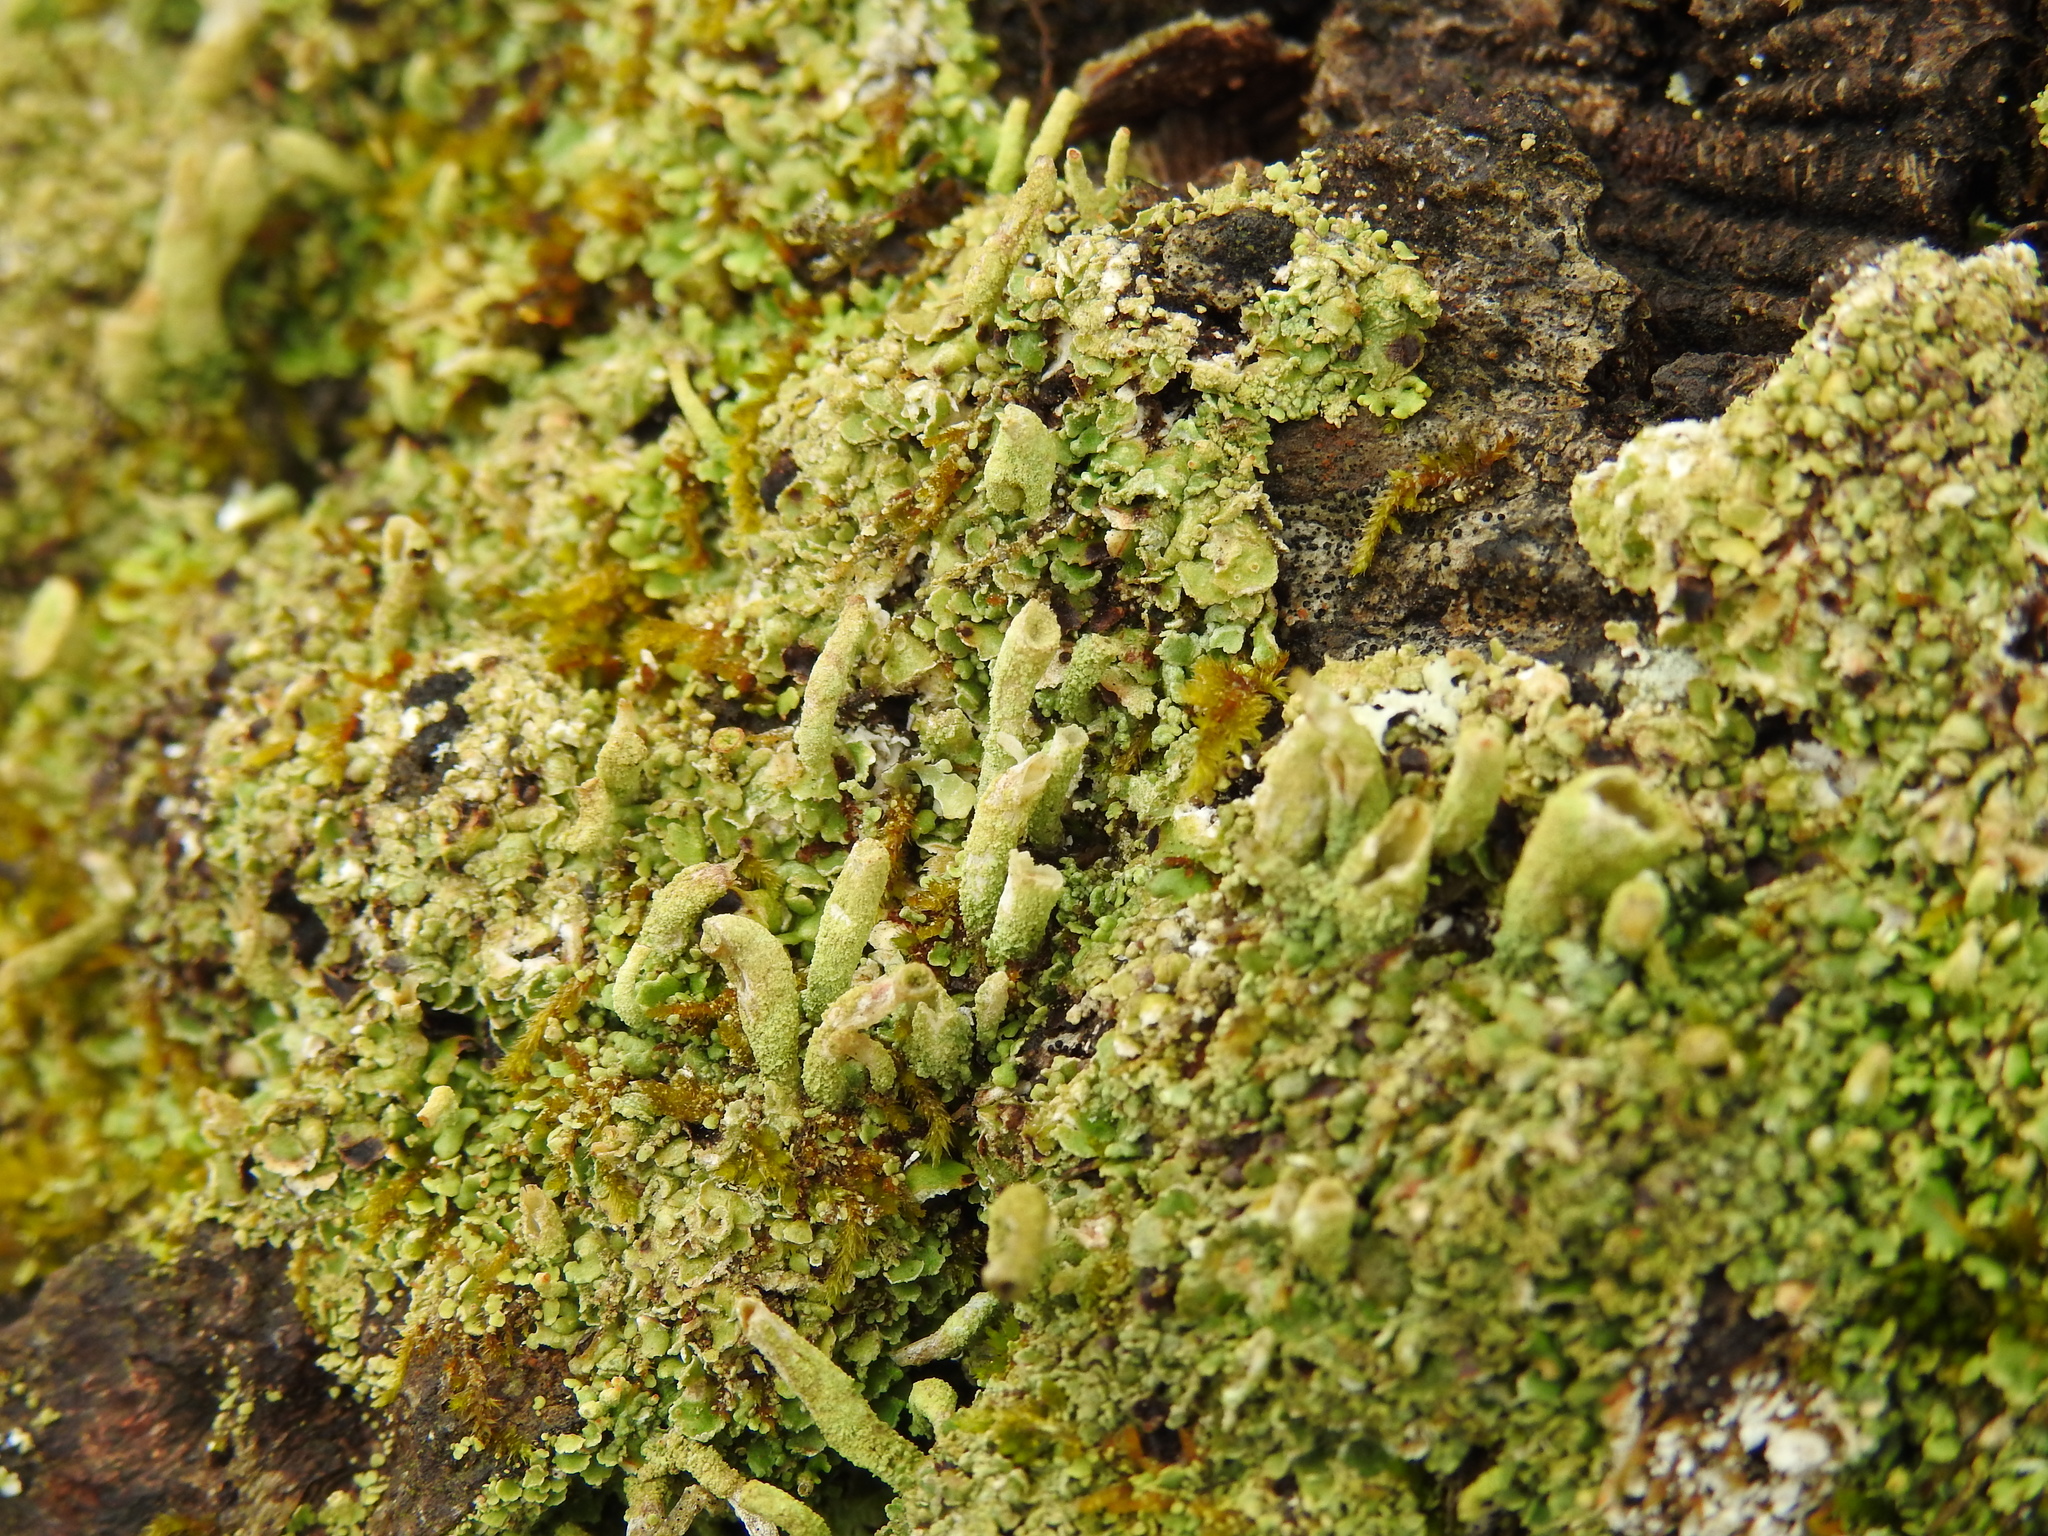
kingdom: Fungi
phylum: Ascomycota
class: Lecanoromycetes
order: Lecanorales
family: Cladoniaceae
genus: Cladonia
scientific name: Cladonia coniocraea
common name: Common powderhorn
